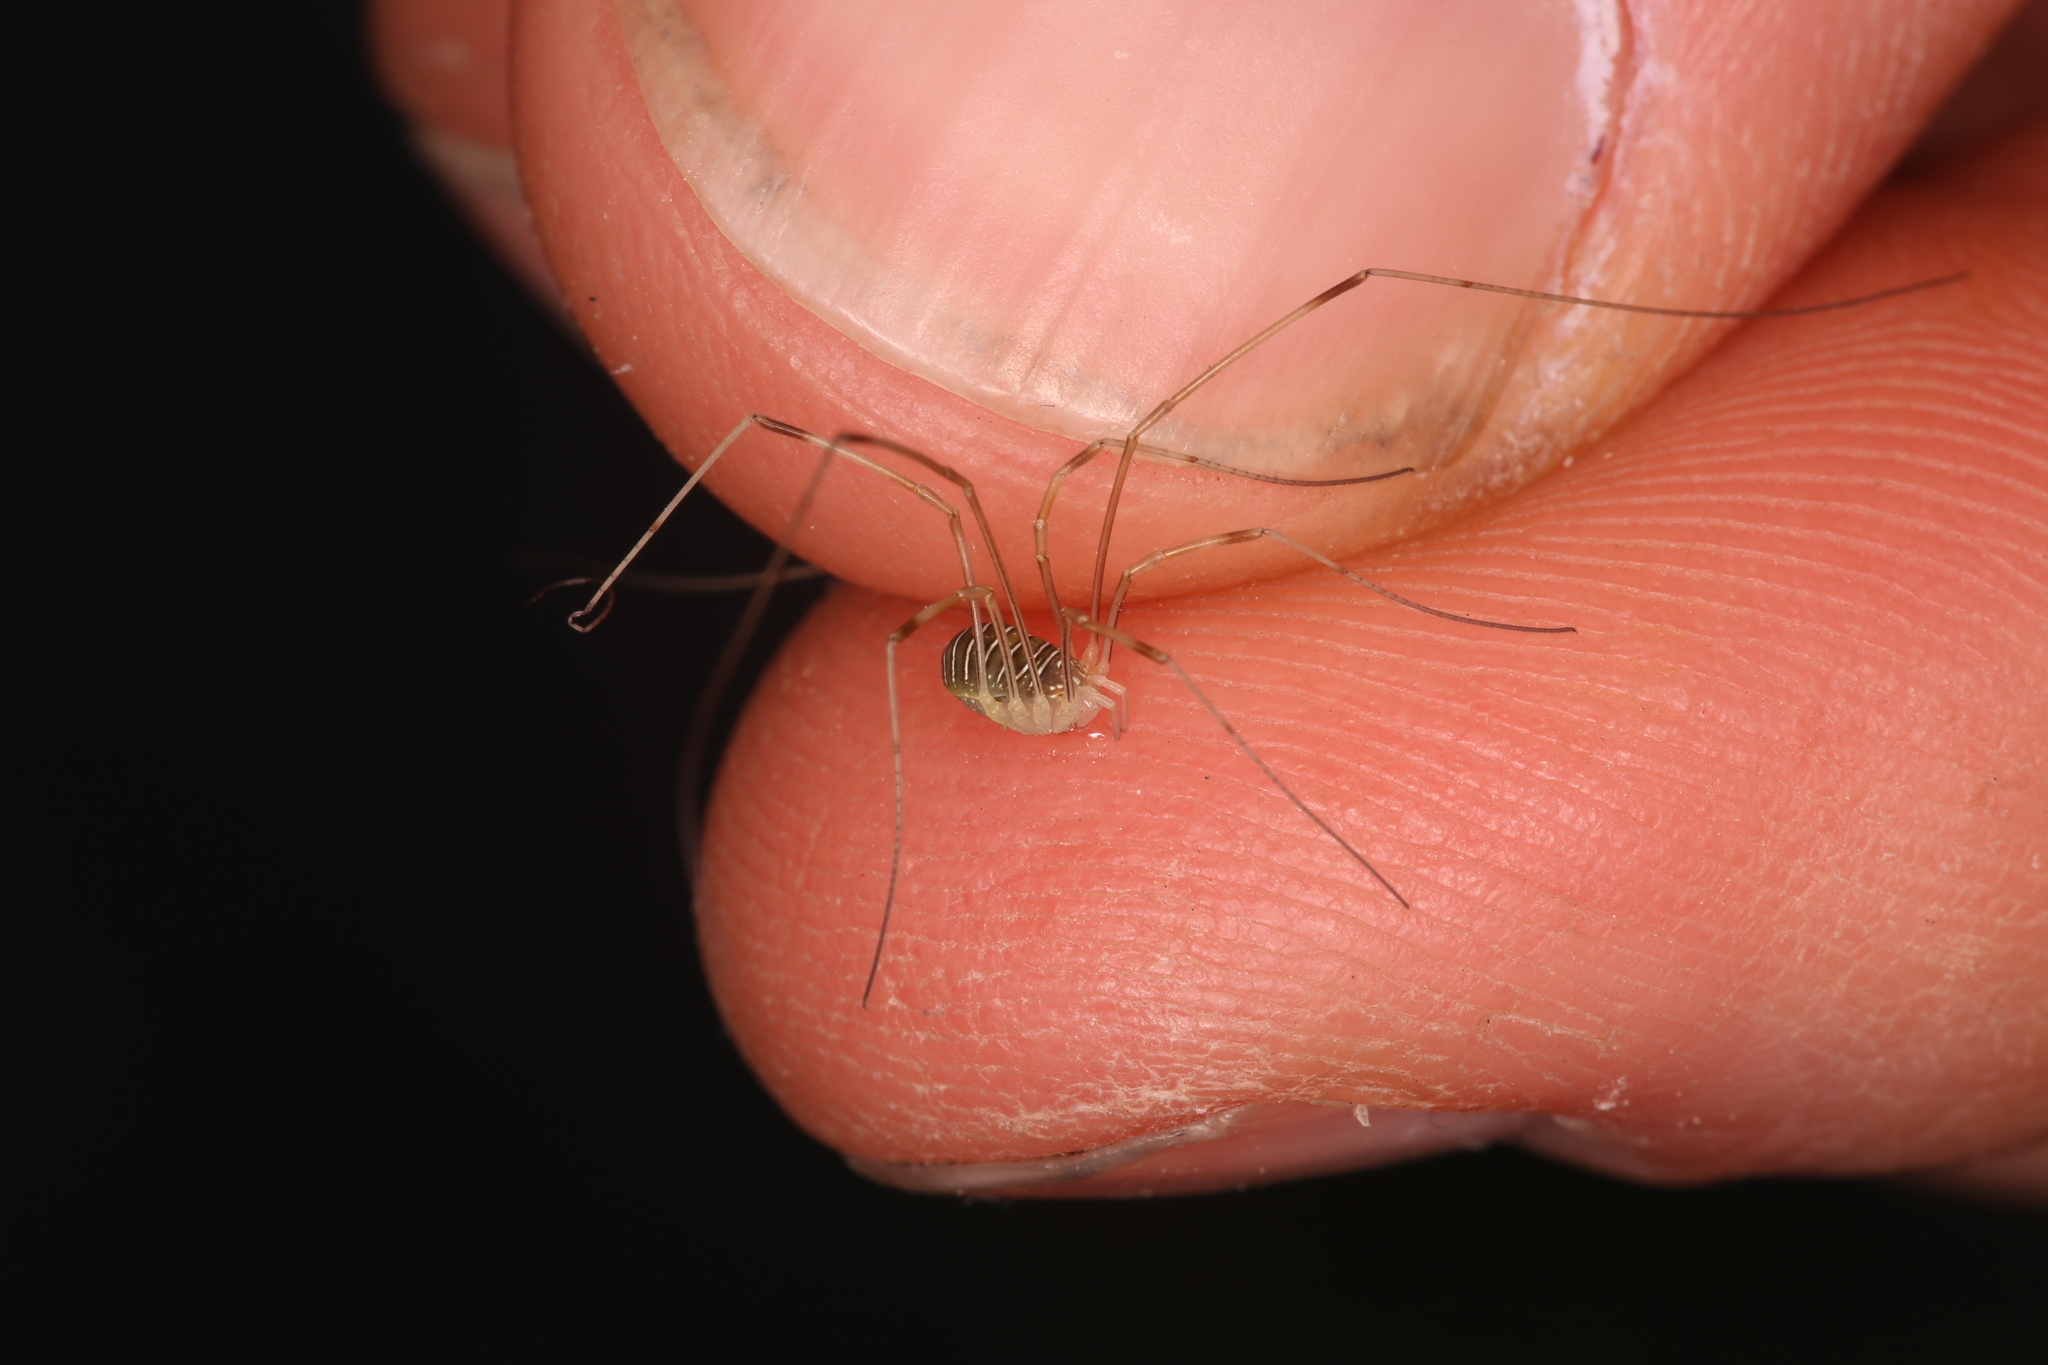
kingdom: Animalia
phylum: Arthropoda
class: Arachnida
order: Opiliones
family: Phalangiidae
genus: Opilio
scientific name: Opilio transversalis
